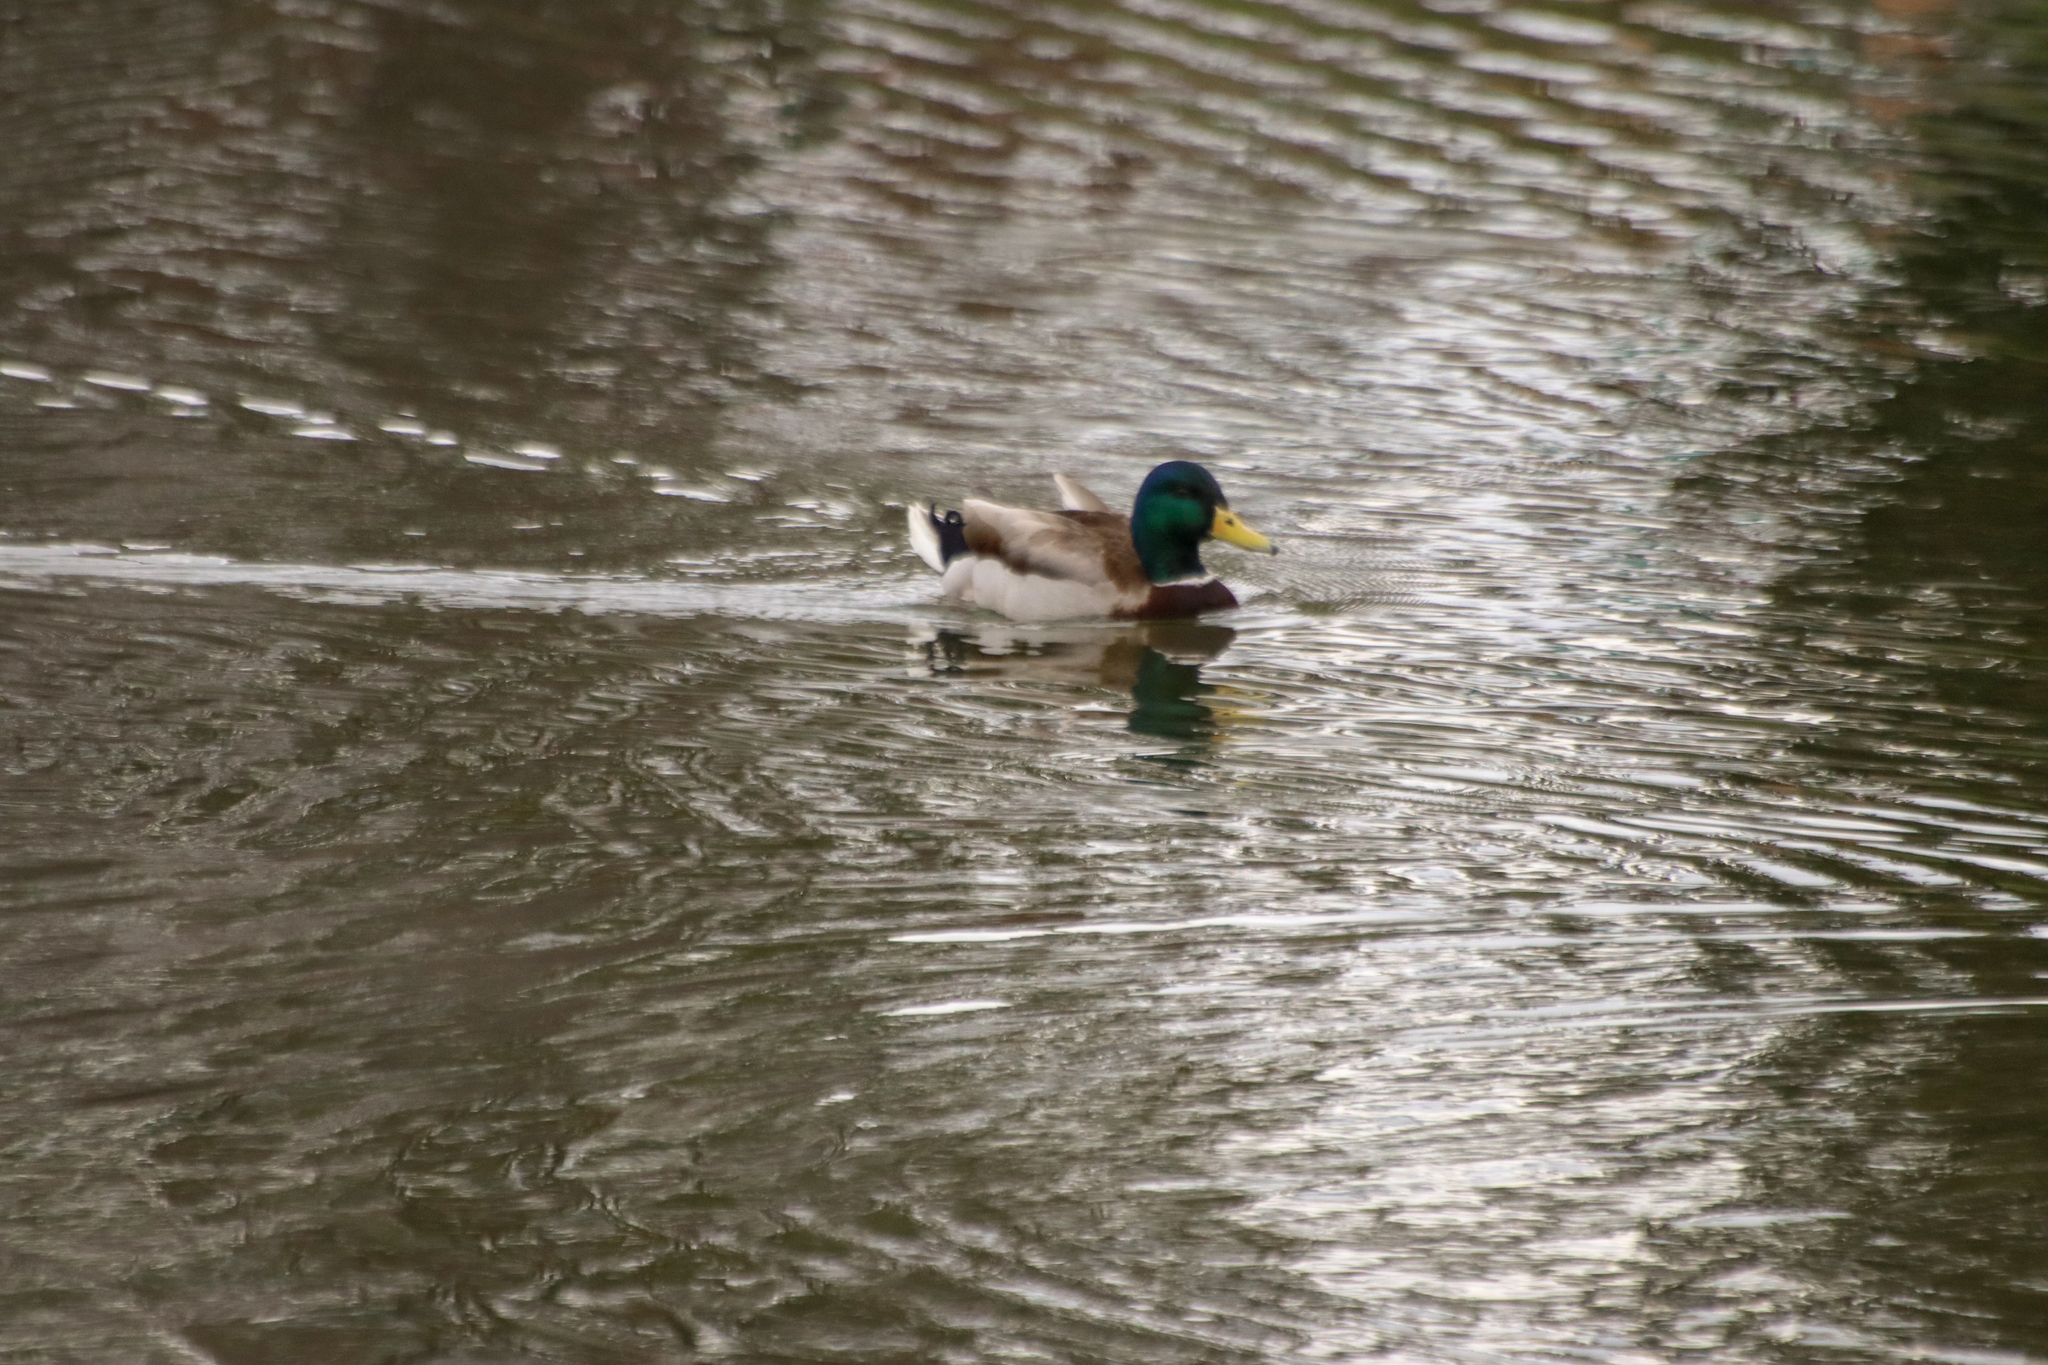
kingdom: Animalia
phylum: Chordata
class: Aves
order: Anseriformes
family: Anatidae
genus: Anas
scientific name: Anas platyrhynchos
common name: Mallard
